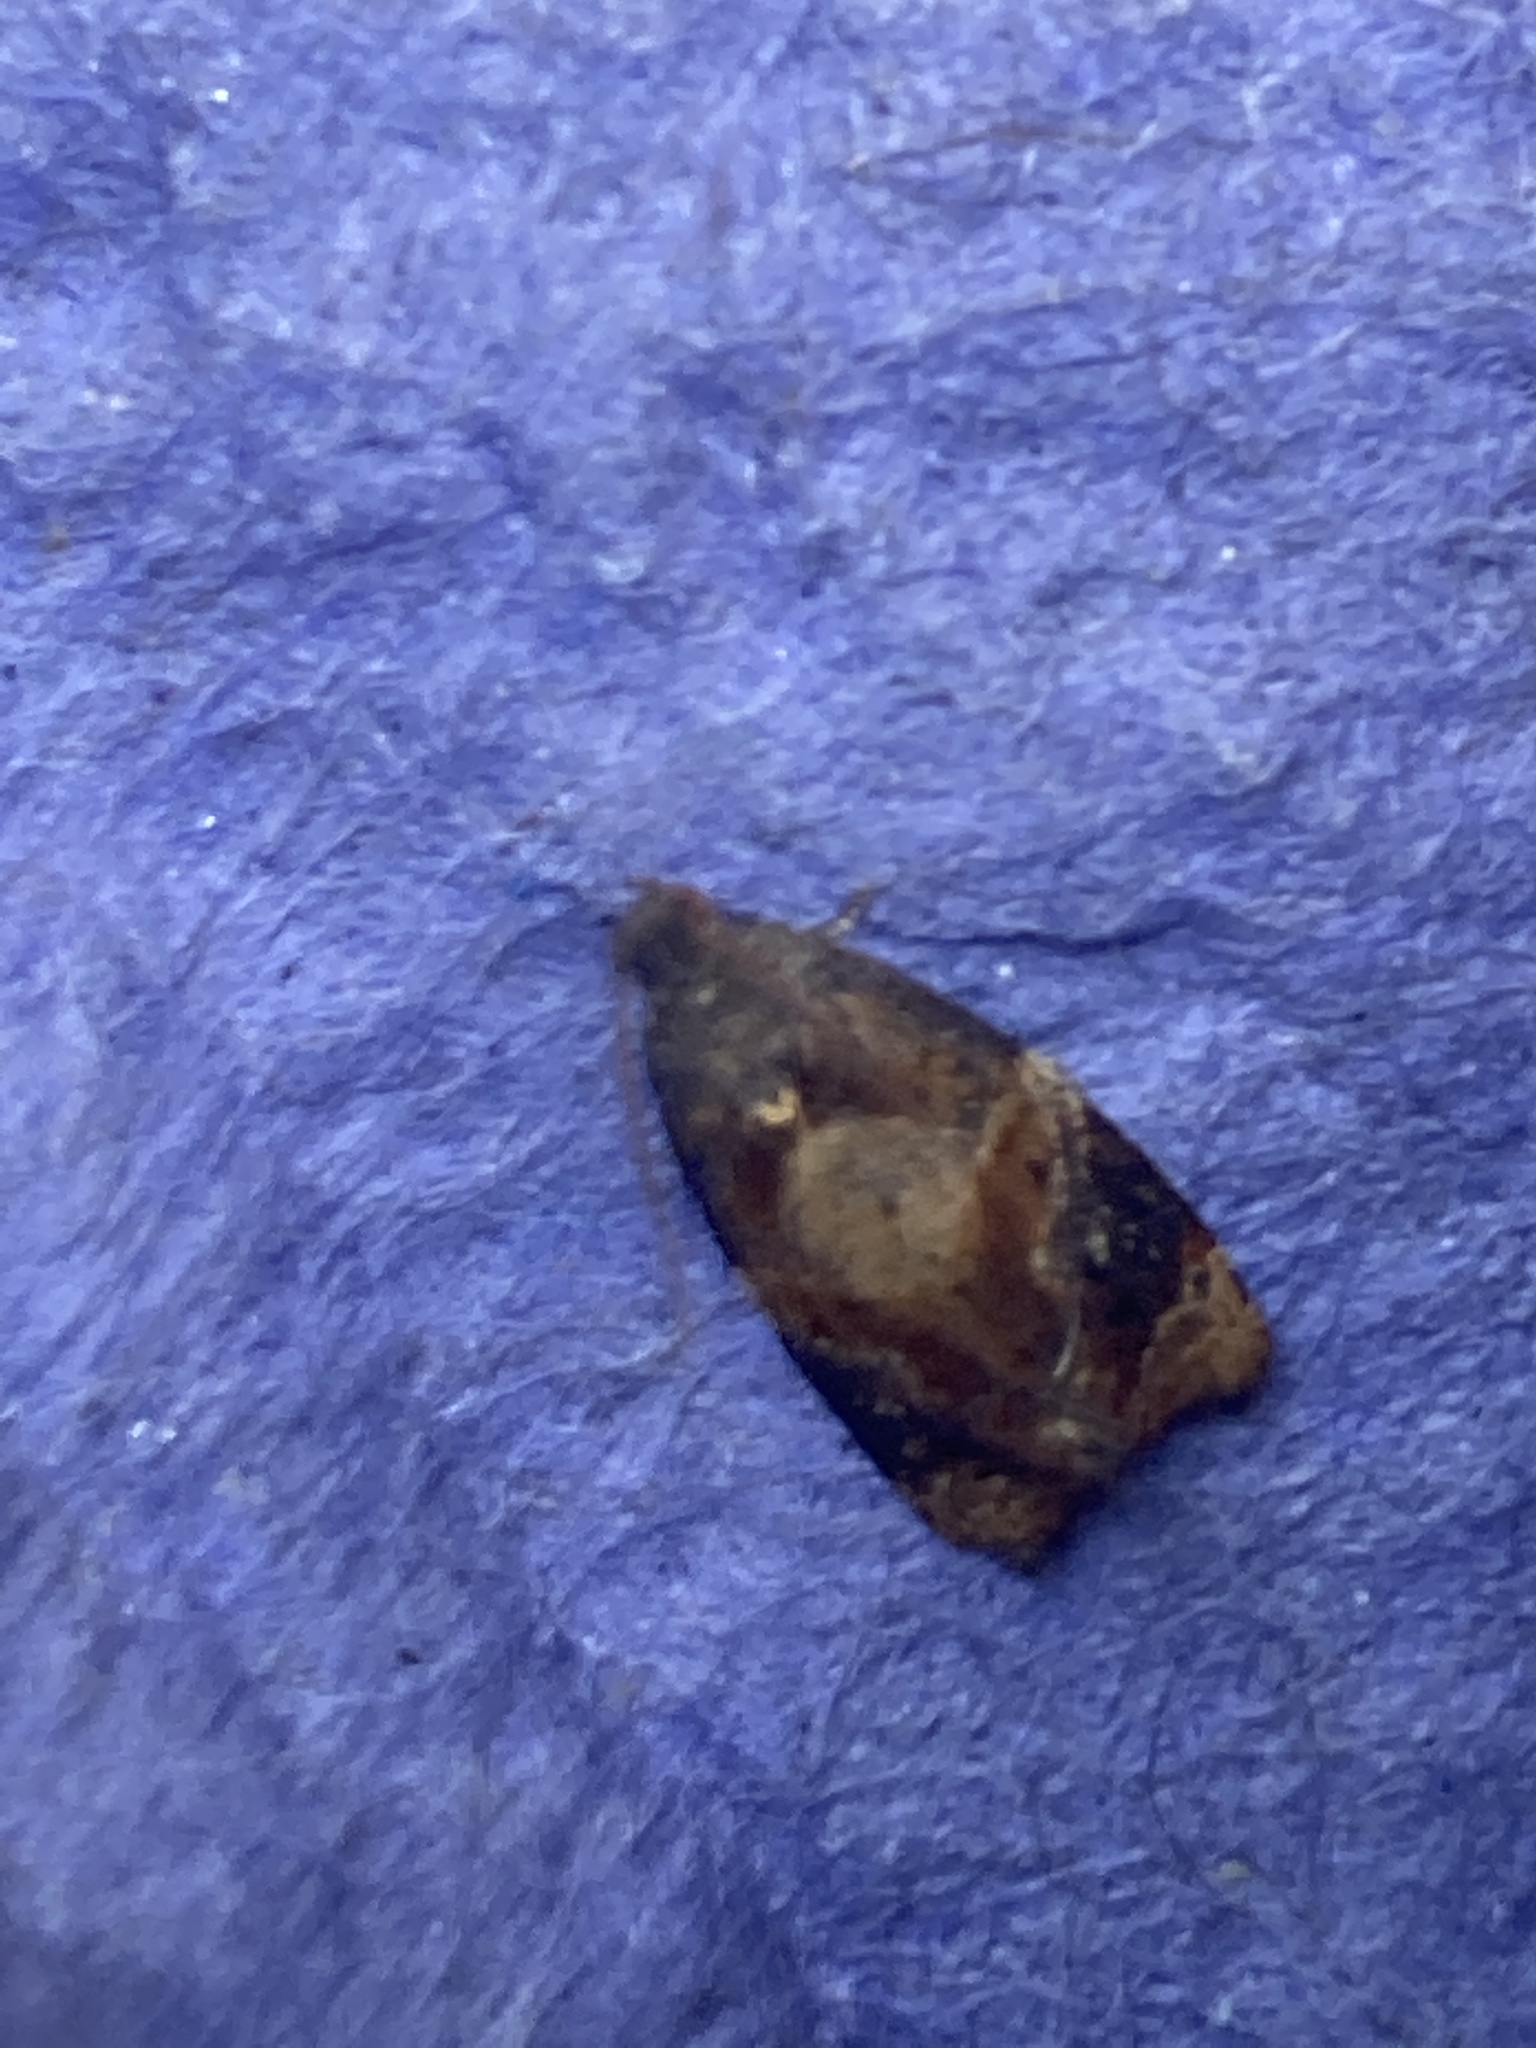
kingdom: Animalia
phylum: Arthropoda
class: Insecta
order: Lepidoptera
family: Tortricidae
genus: Ditula
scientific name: Ditula angustiorana
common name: Red-barred tortrix
